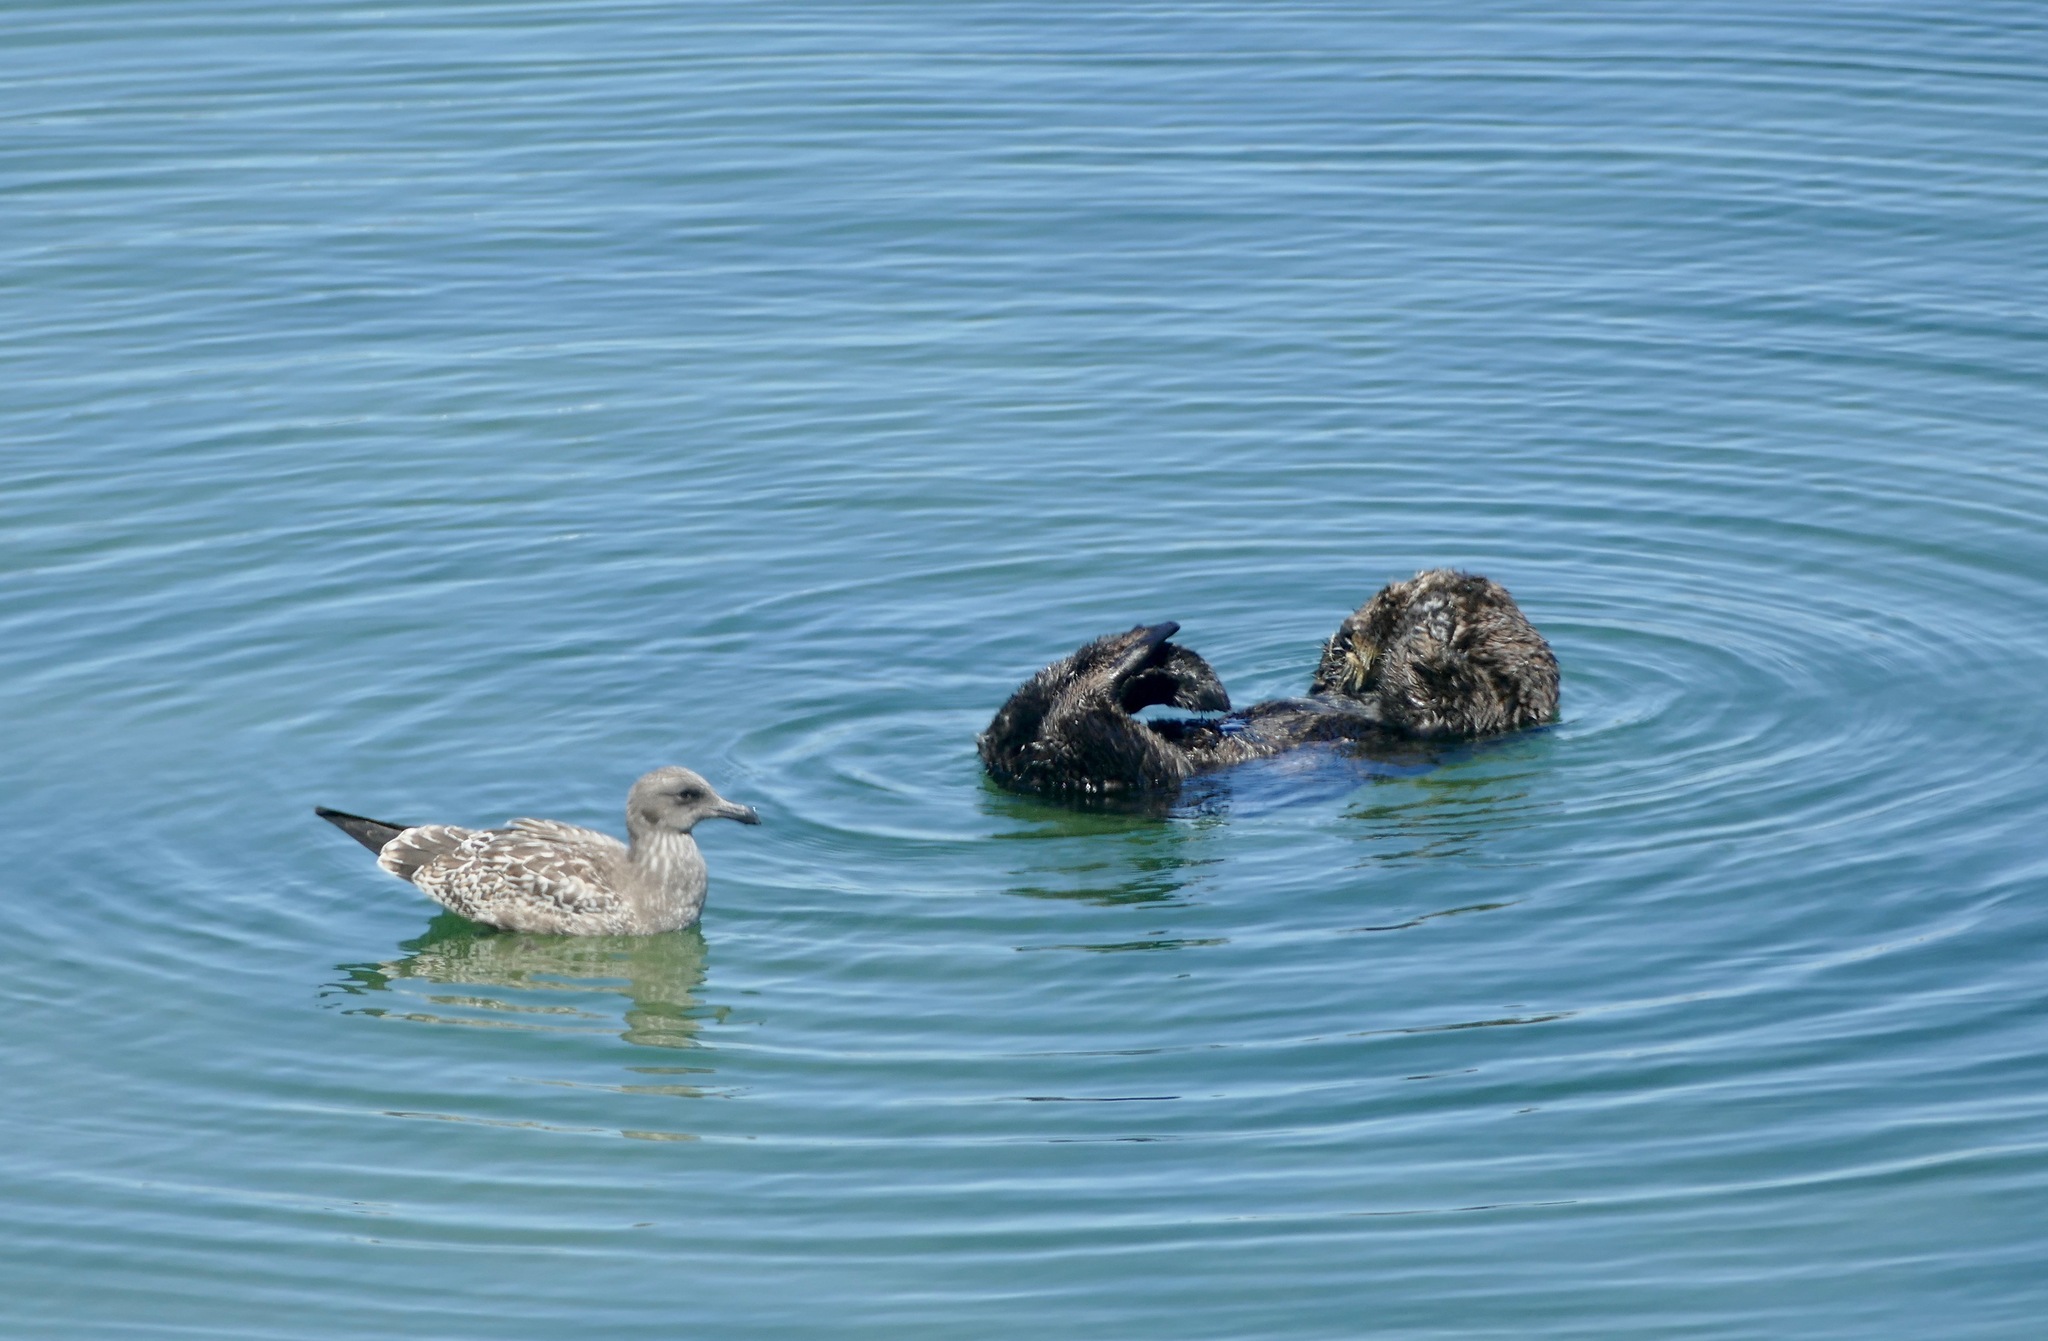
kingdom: Animalia
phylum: Chordata
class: Mammalia
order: Carnivora
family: Mustelidae
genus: Enhydra
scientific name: Enhydra lutris
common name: Sea otter
